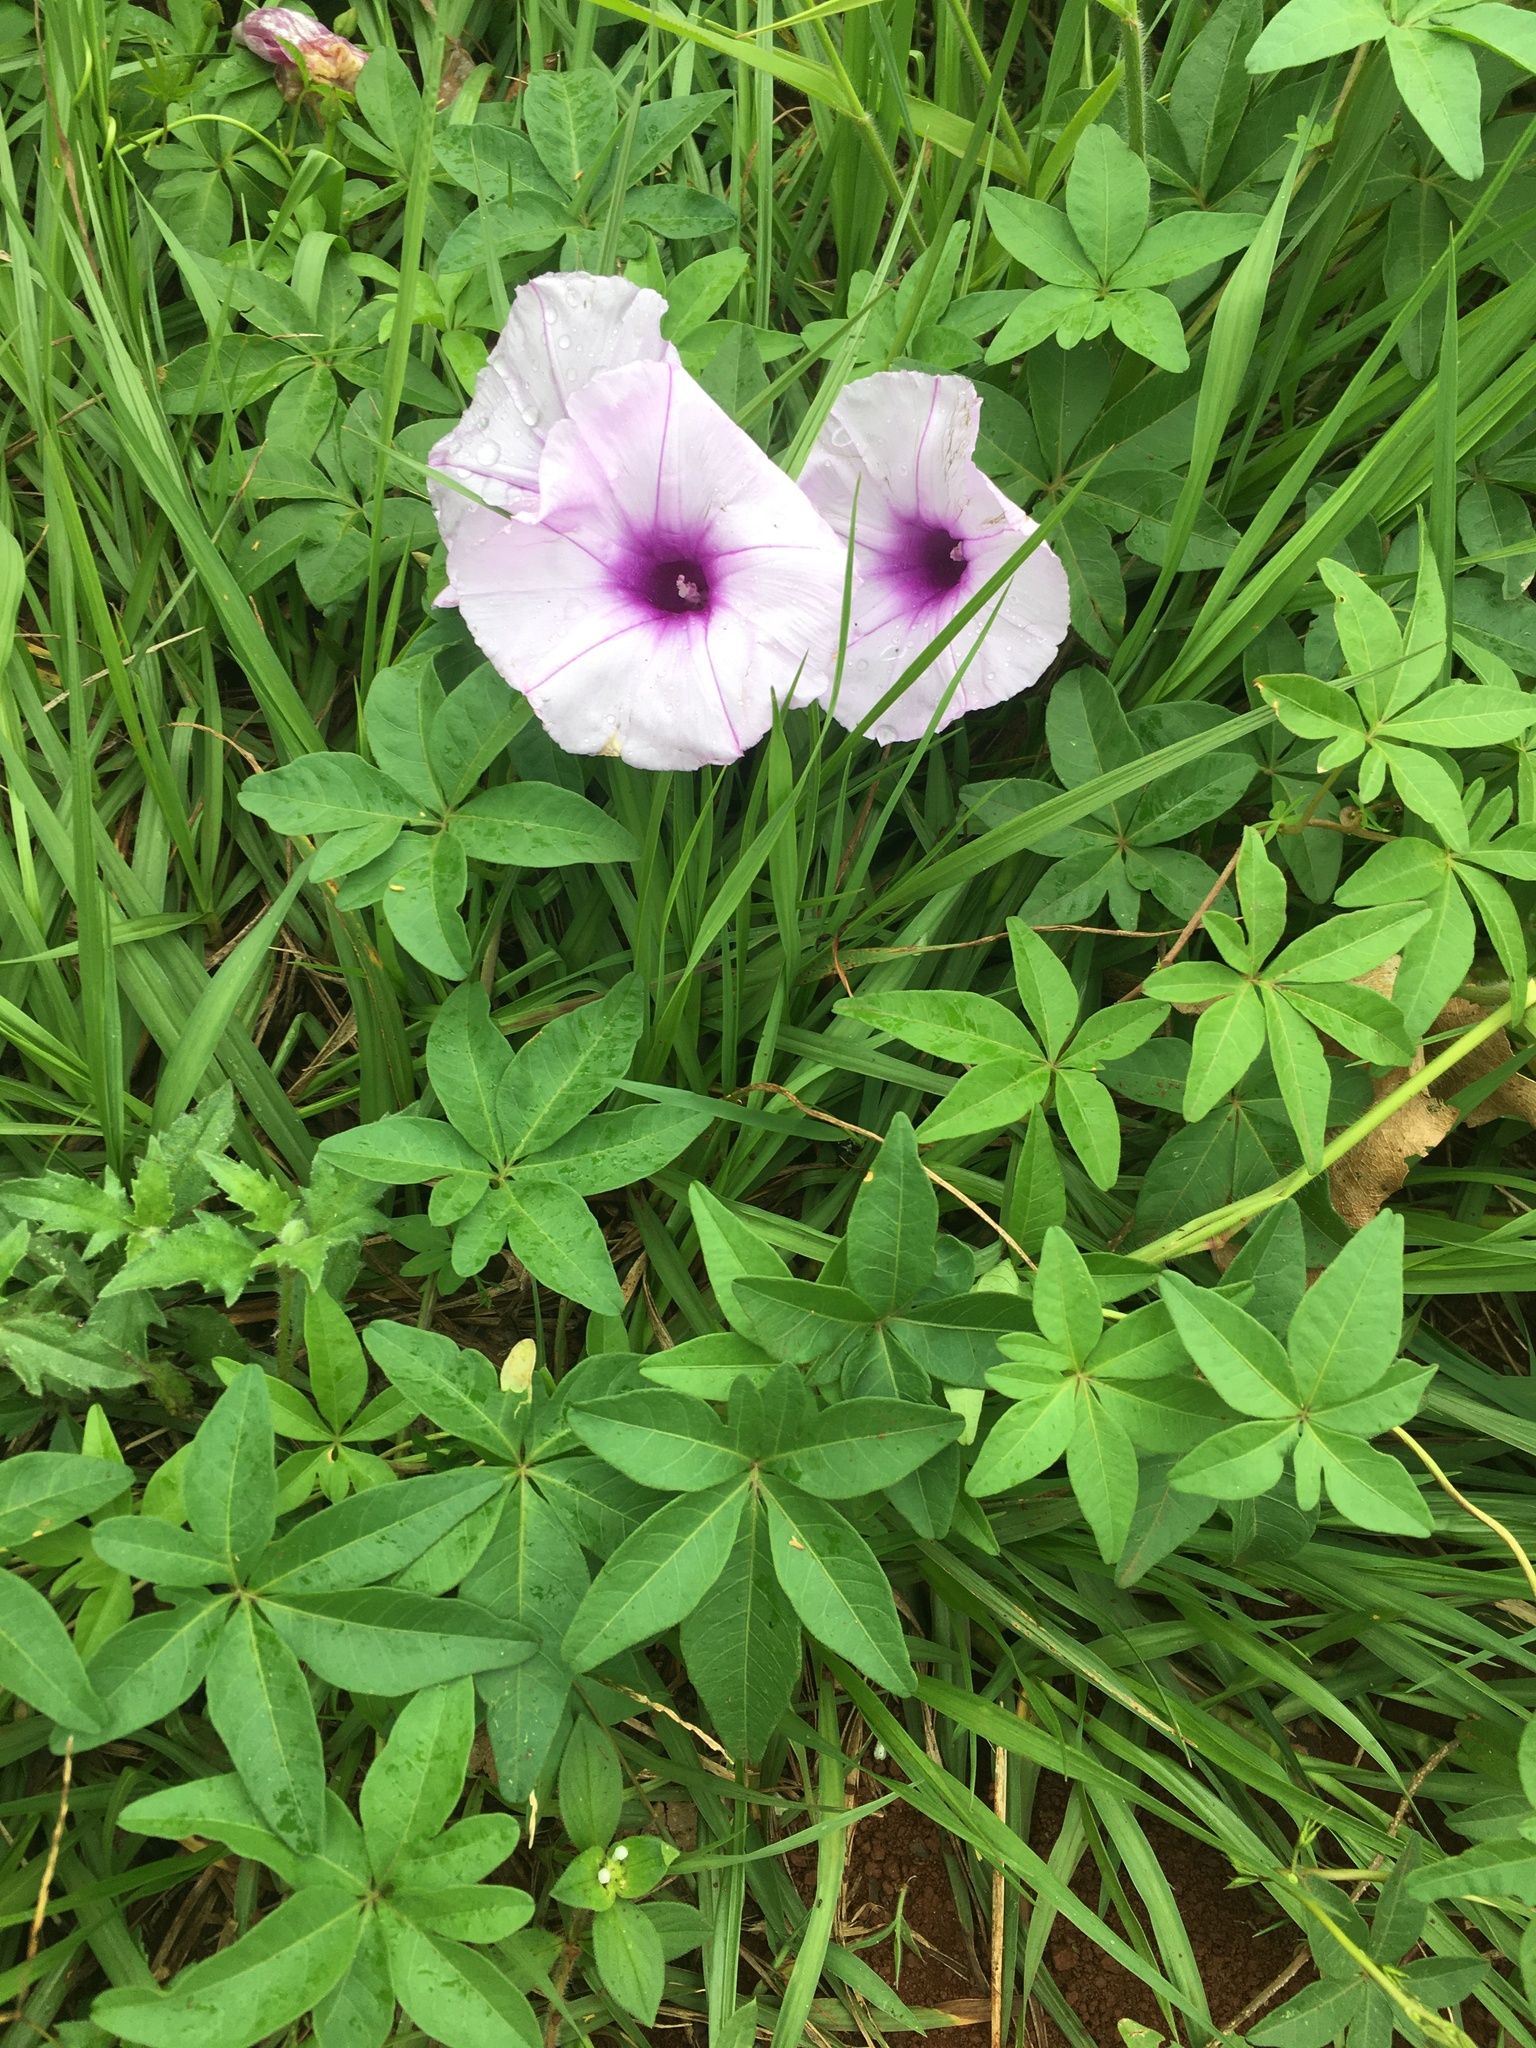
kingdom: Plantae
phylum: Tracheophyta
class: Magnoliopsida
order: Solanales
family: Convolvulaceae
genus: Ipomoea
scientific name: Ipomoea cairica
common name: Mile a minute vine
